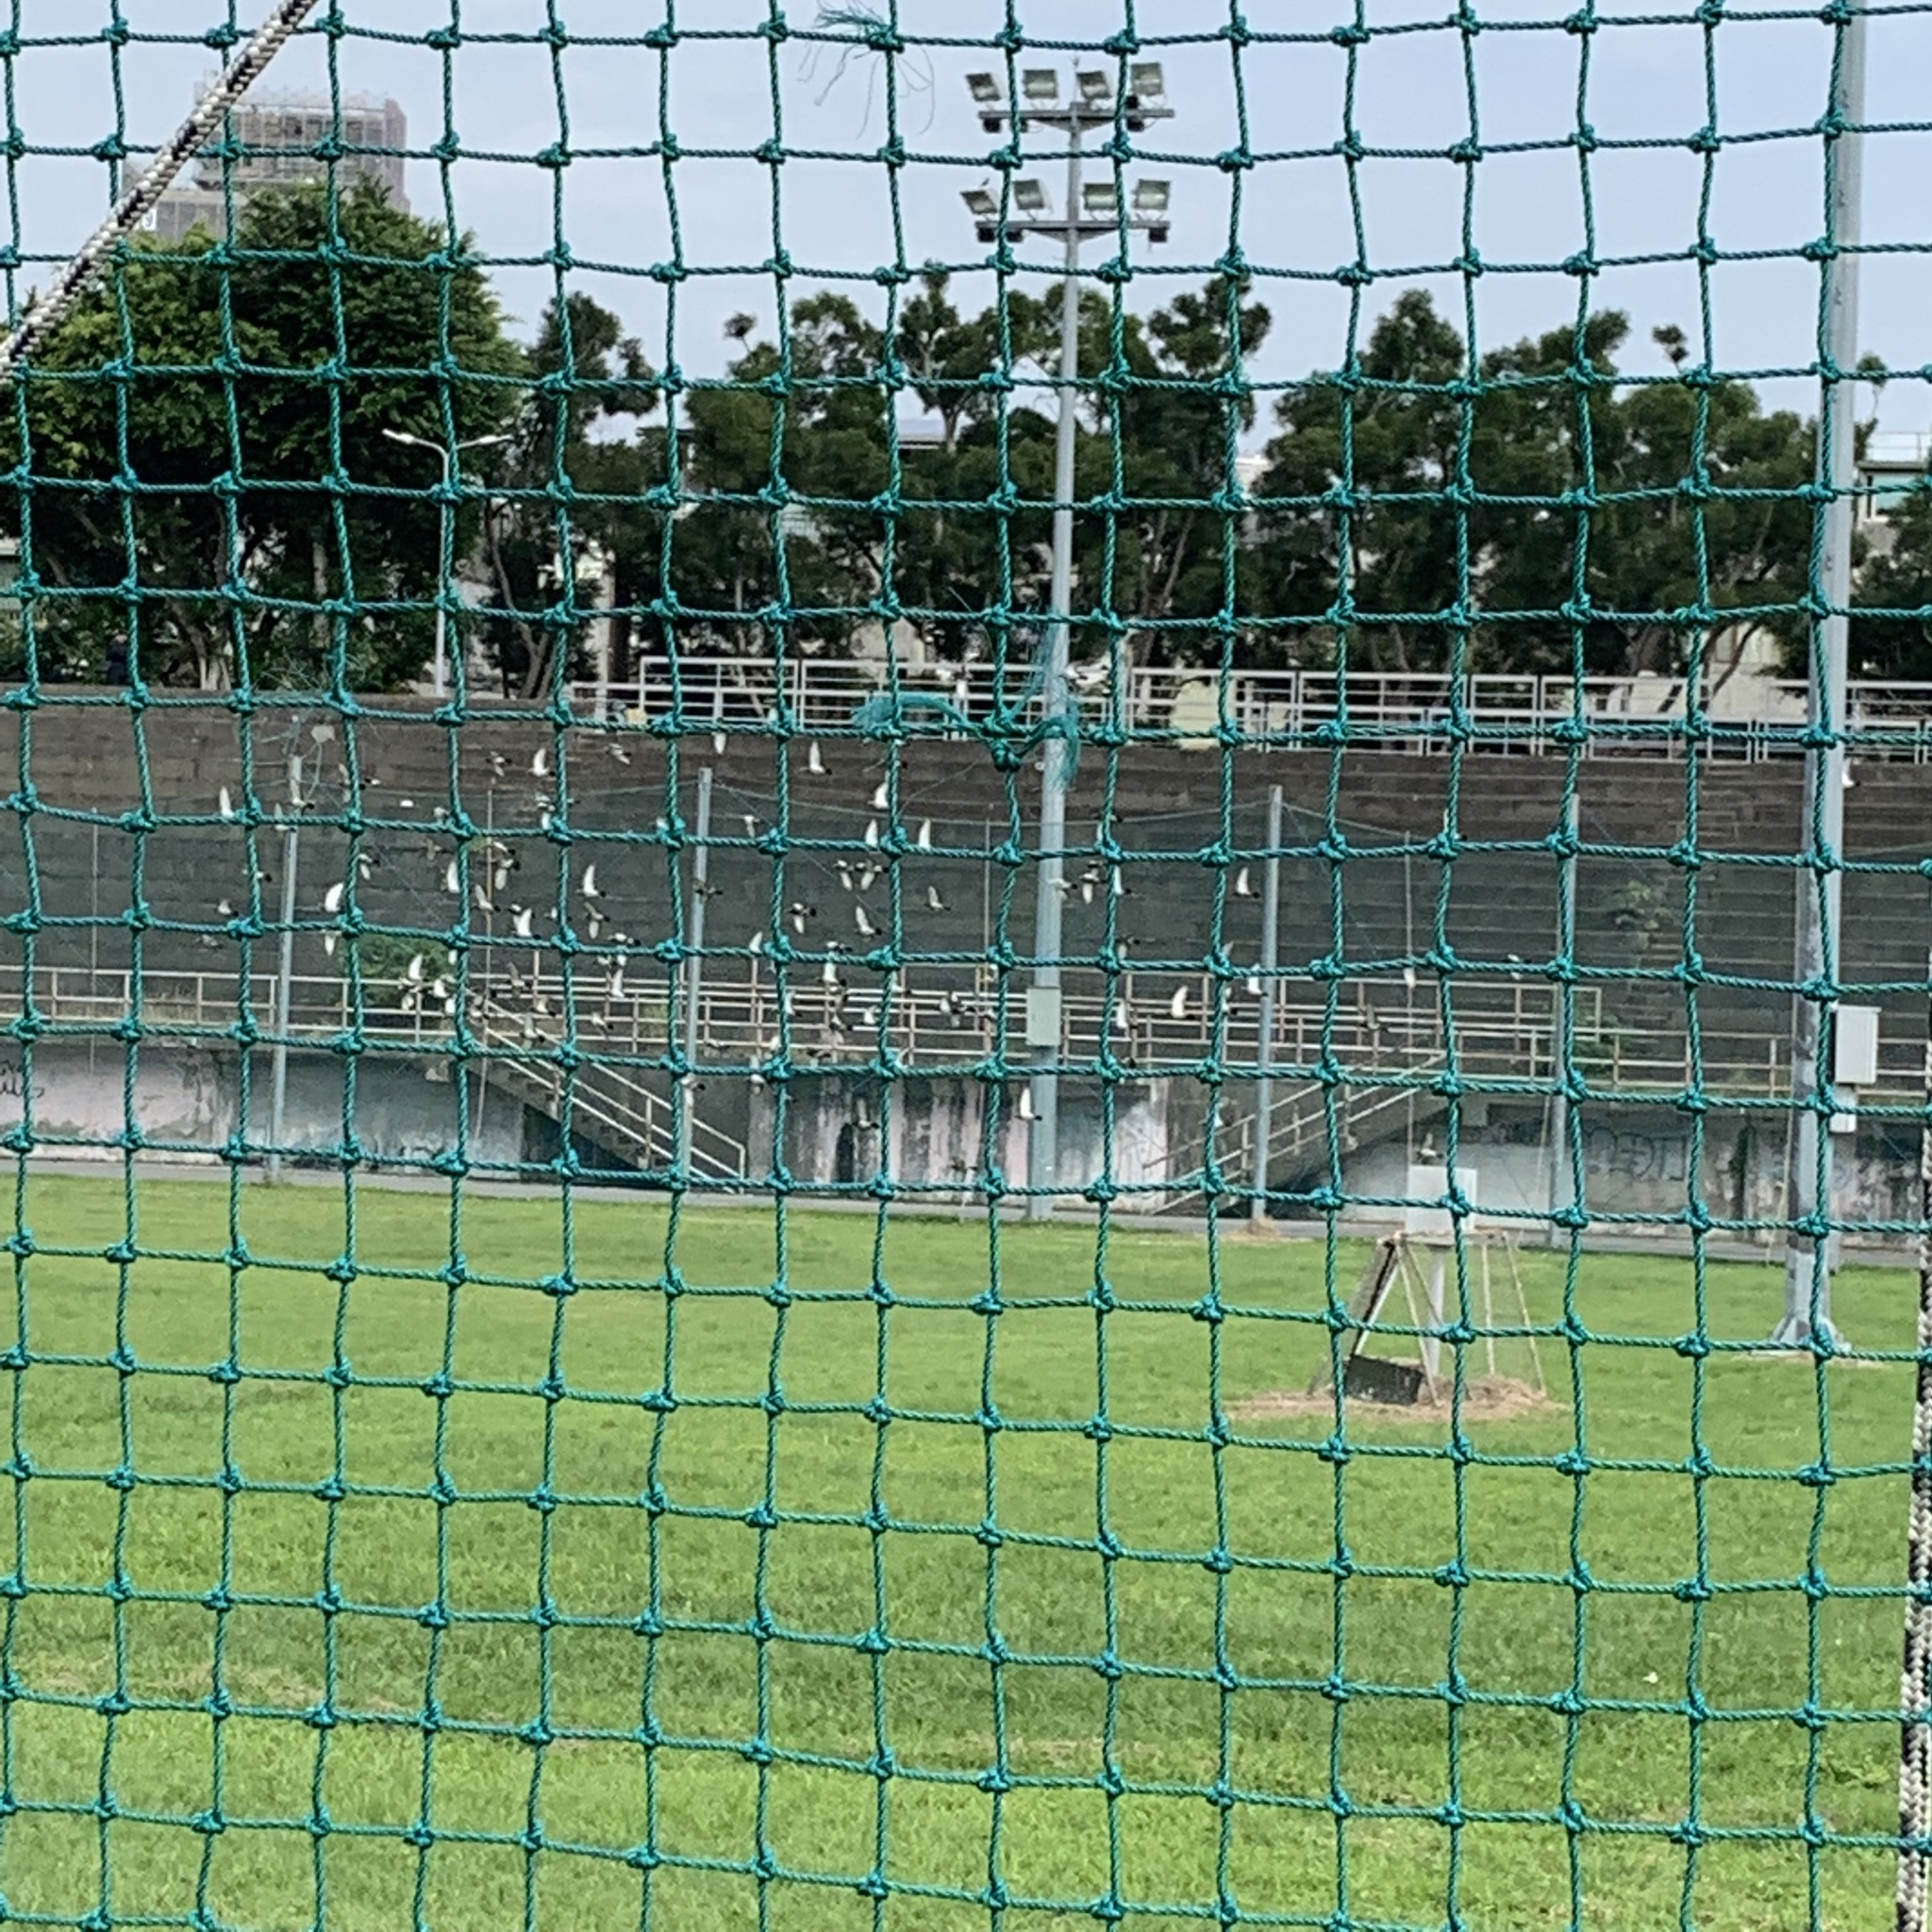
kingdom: Animalia
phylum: Chordata
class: Aves
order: Columbiformes
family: Columbidae
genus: Columba
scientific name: Columba livia
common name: Rock pigeon
